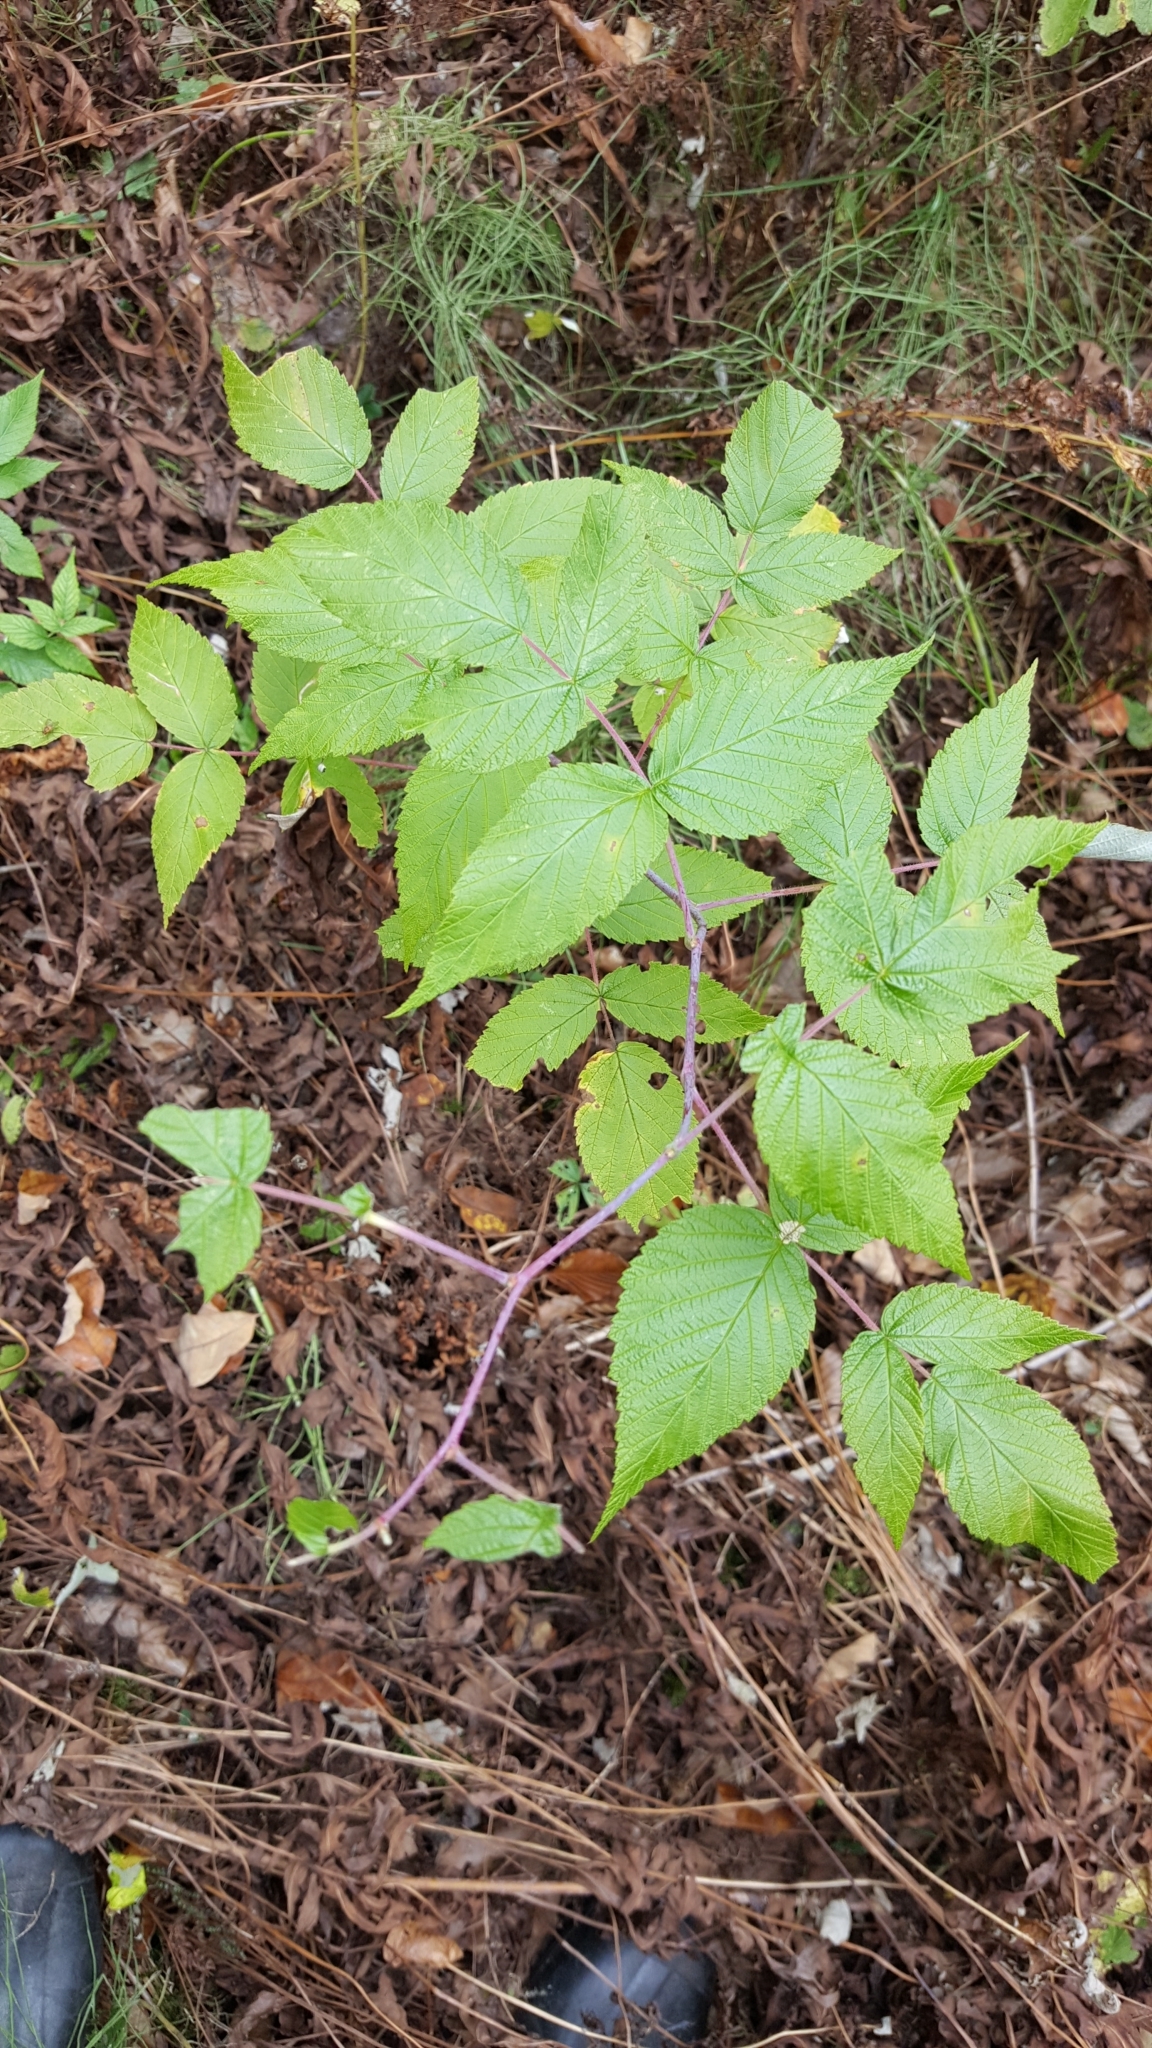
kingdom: Plantae
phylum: Tracheophyta
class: Magnoliopsida
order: Rosales
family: Rosaceae
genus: Rubus
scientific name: Rubus occidentalis
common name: Black raspberry
